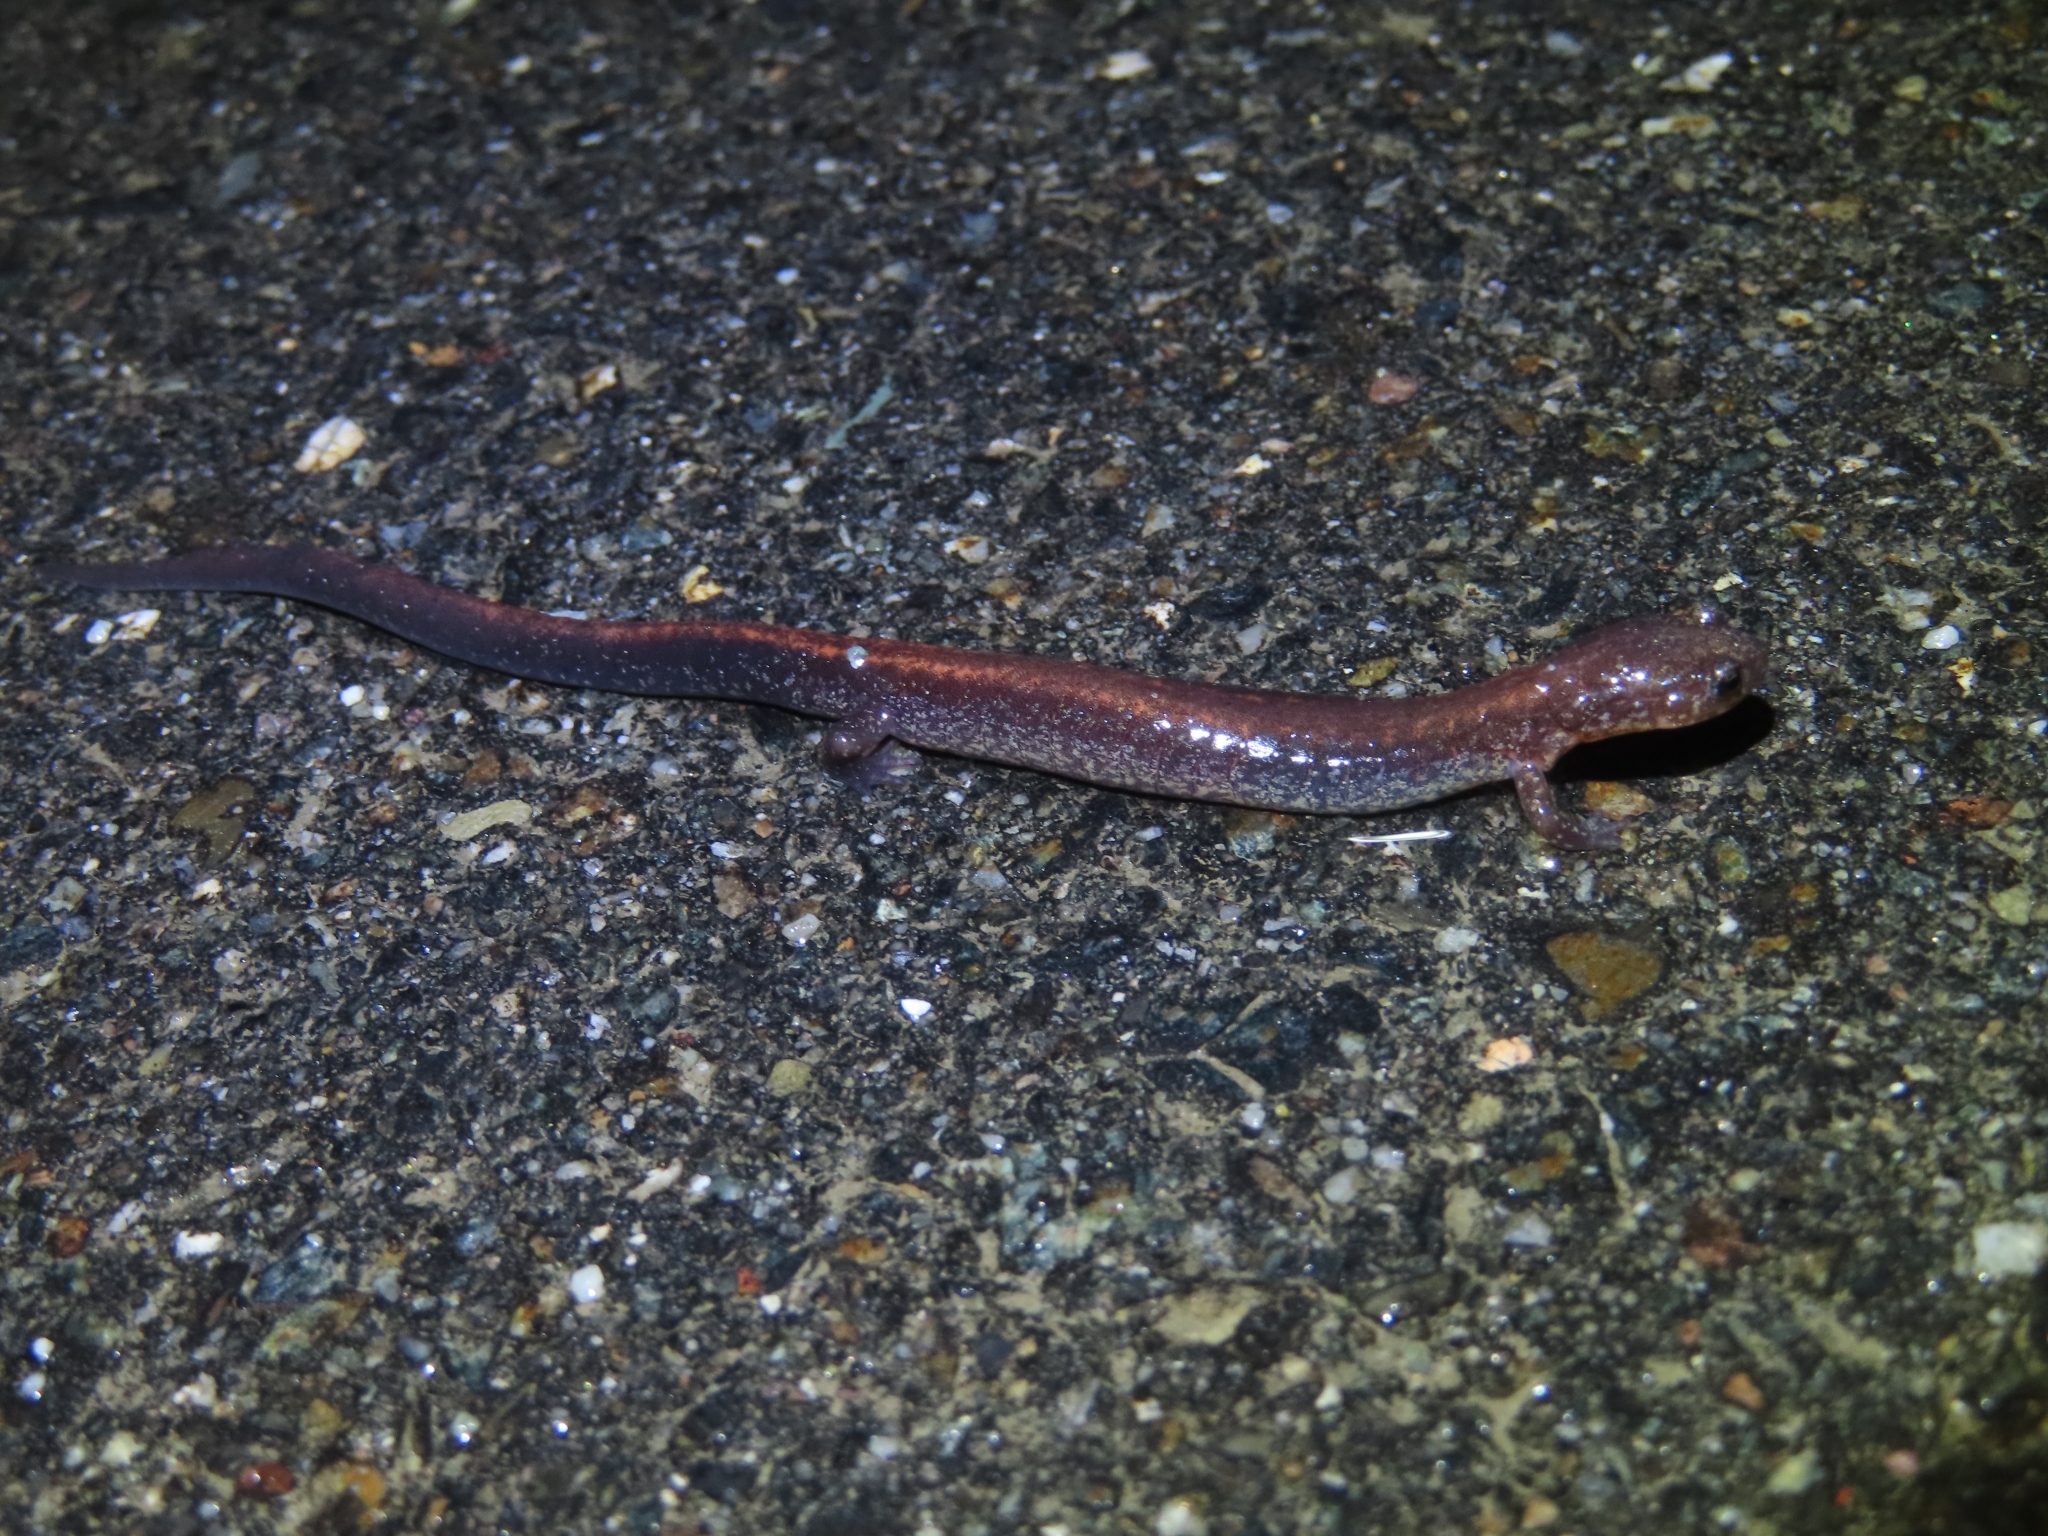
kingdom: Animalia
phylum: Chordata
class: Amphibia
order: Caudata
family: Plethodontidae
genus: Plethodon
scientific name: Plethodon cinereus
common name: Redback salamander
